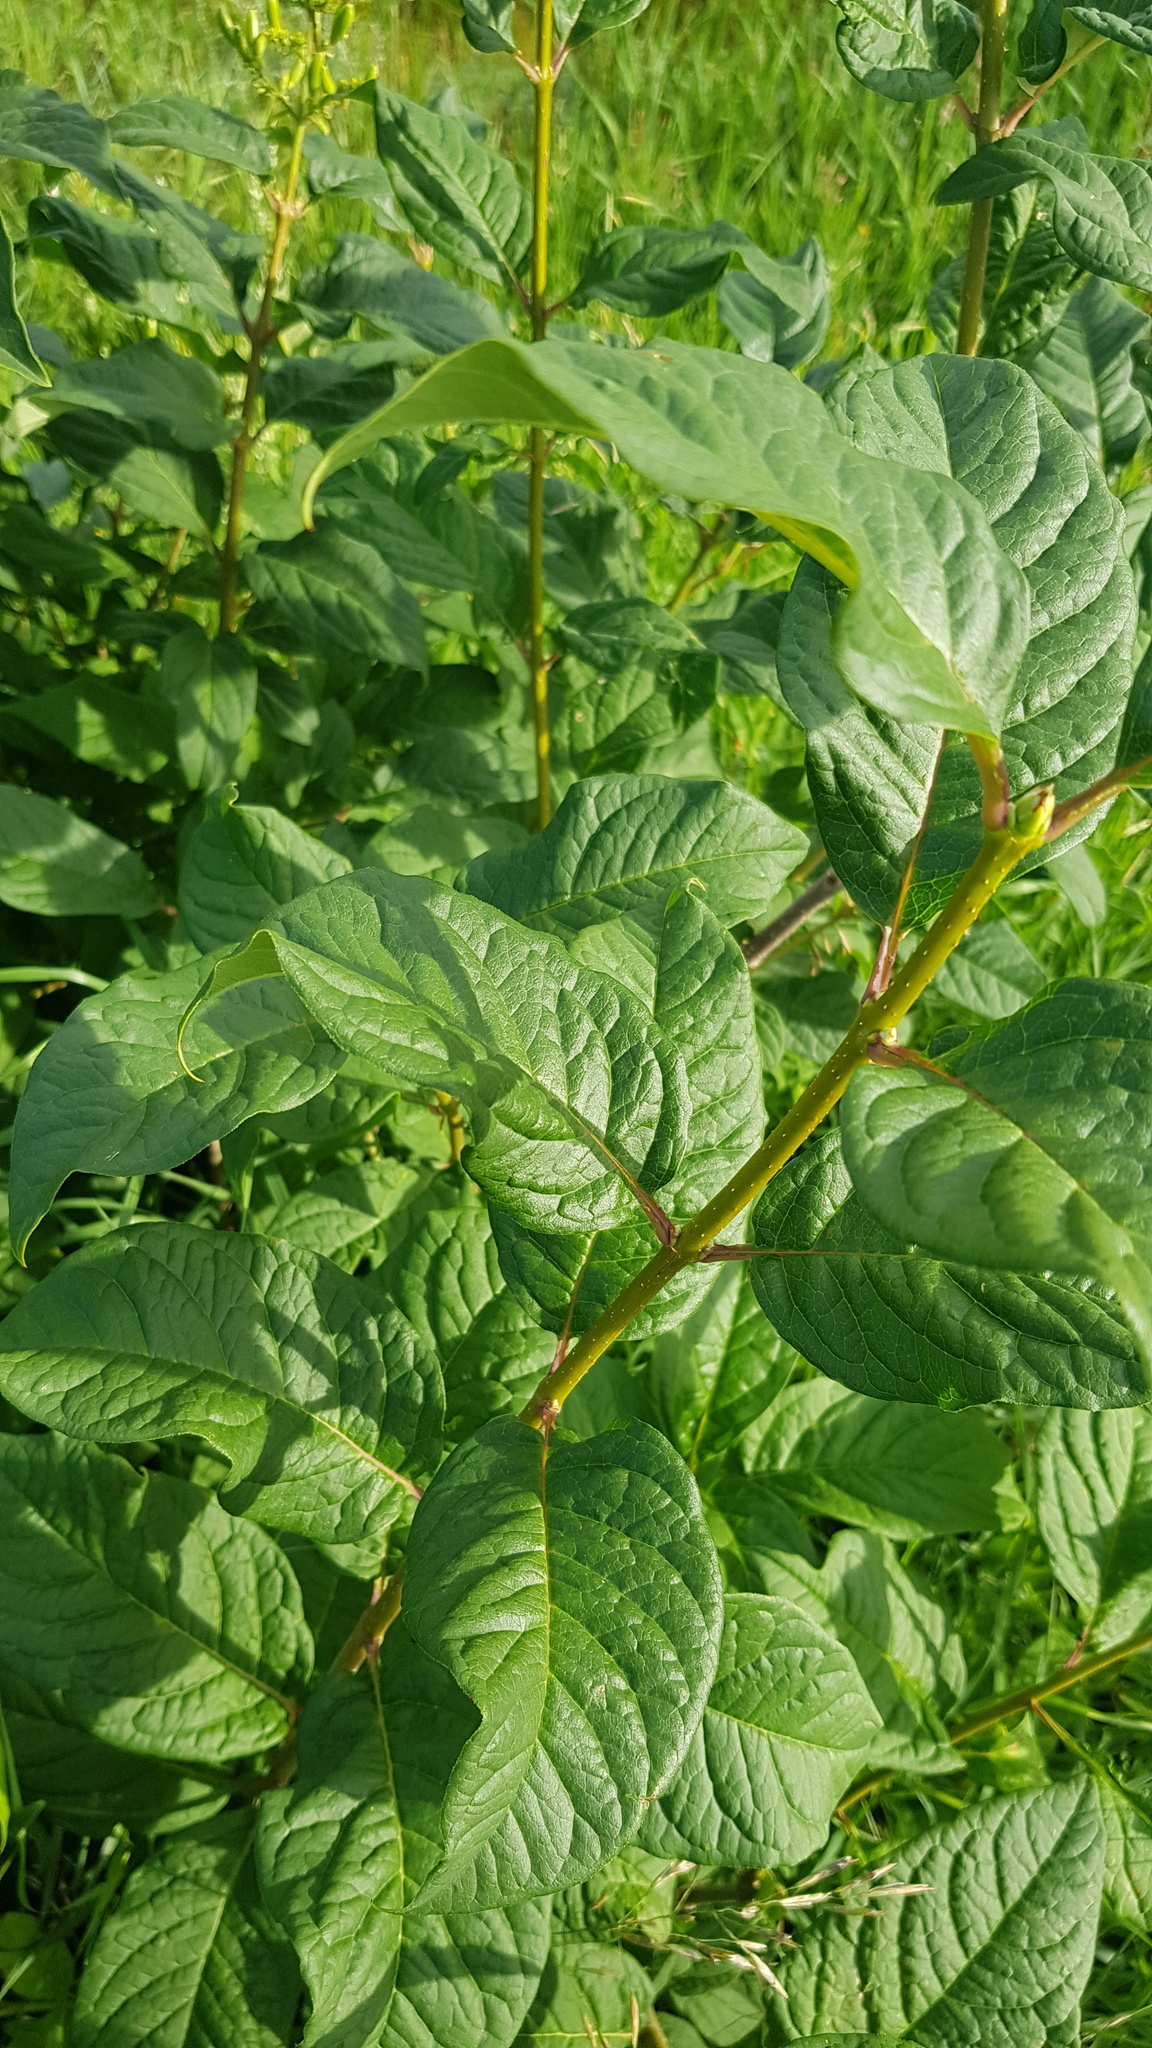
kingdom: Plantae
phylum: Tracheophyta
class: Magnoliopsida
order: Lamiales
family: Oleaceae
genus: Syringa
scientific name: Syringa josikaea
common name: Hungarian lilac
